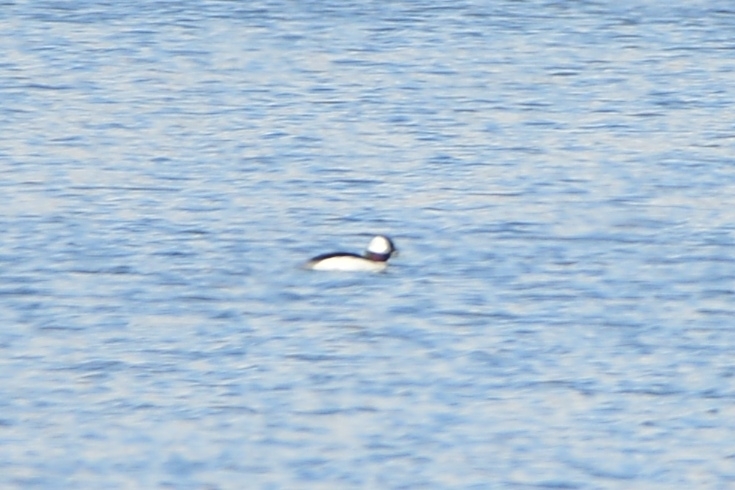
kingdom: Animalia
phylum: Chordata
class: Aves
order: Anseriformes
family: Anatidae
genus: Bucephala
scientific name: Bucephala albeola
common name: Bufflehead
